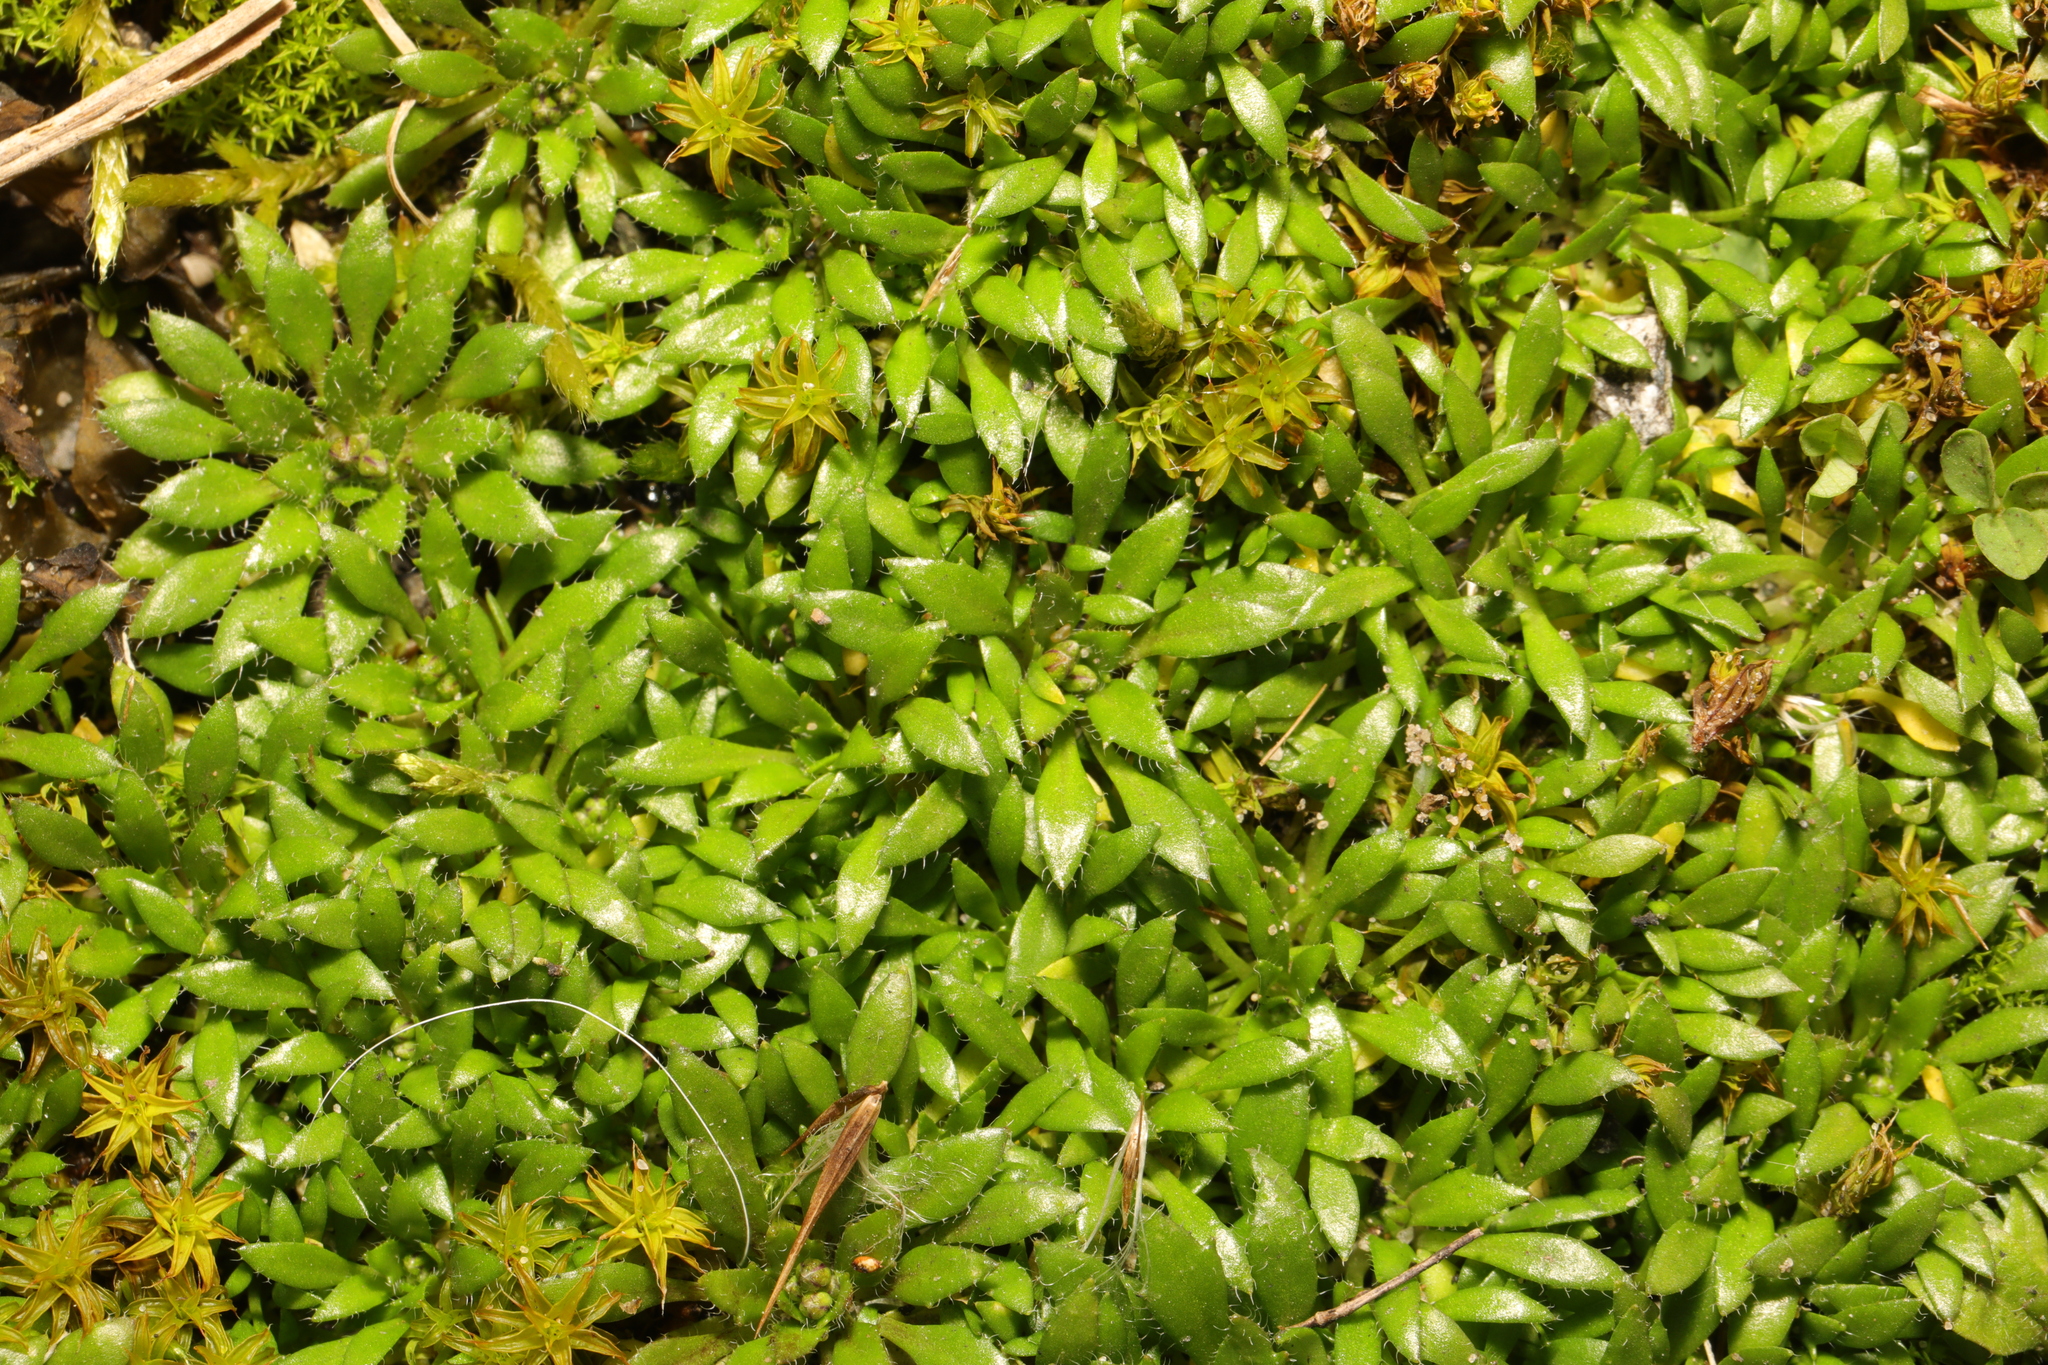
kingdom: Plantae
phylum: Tracheophyta
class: Magnoliopsida
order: Brassicales
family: Brassicaceae
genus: Draba
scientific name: Draba verna
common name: Spring draba
